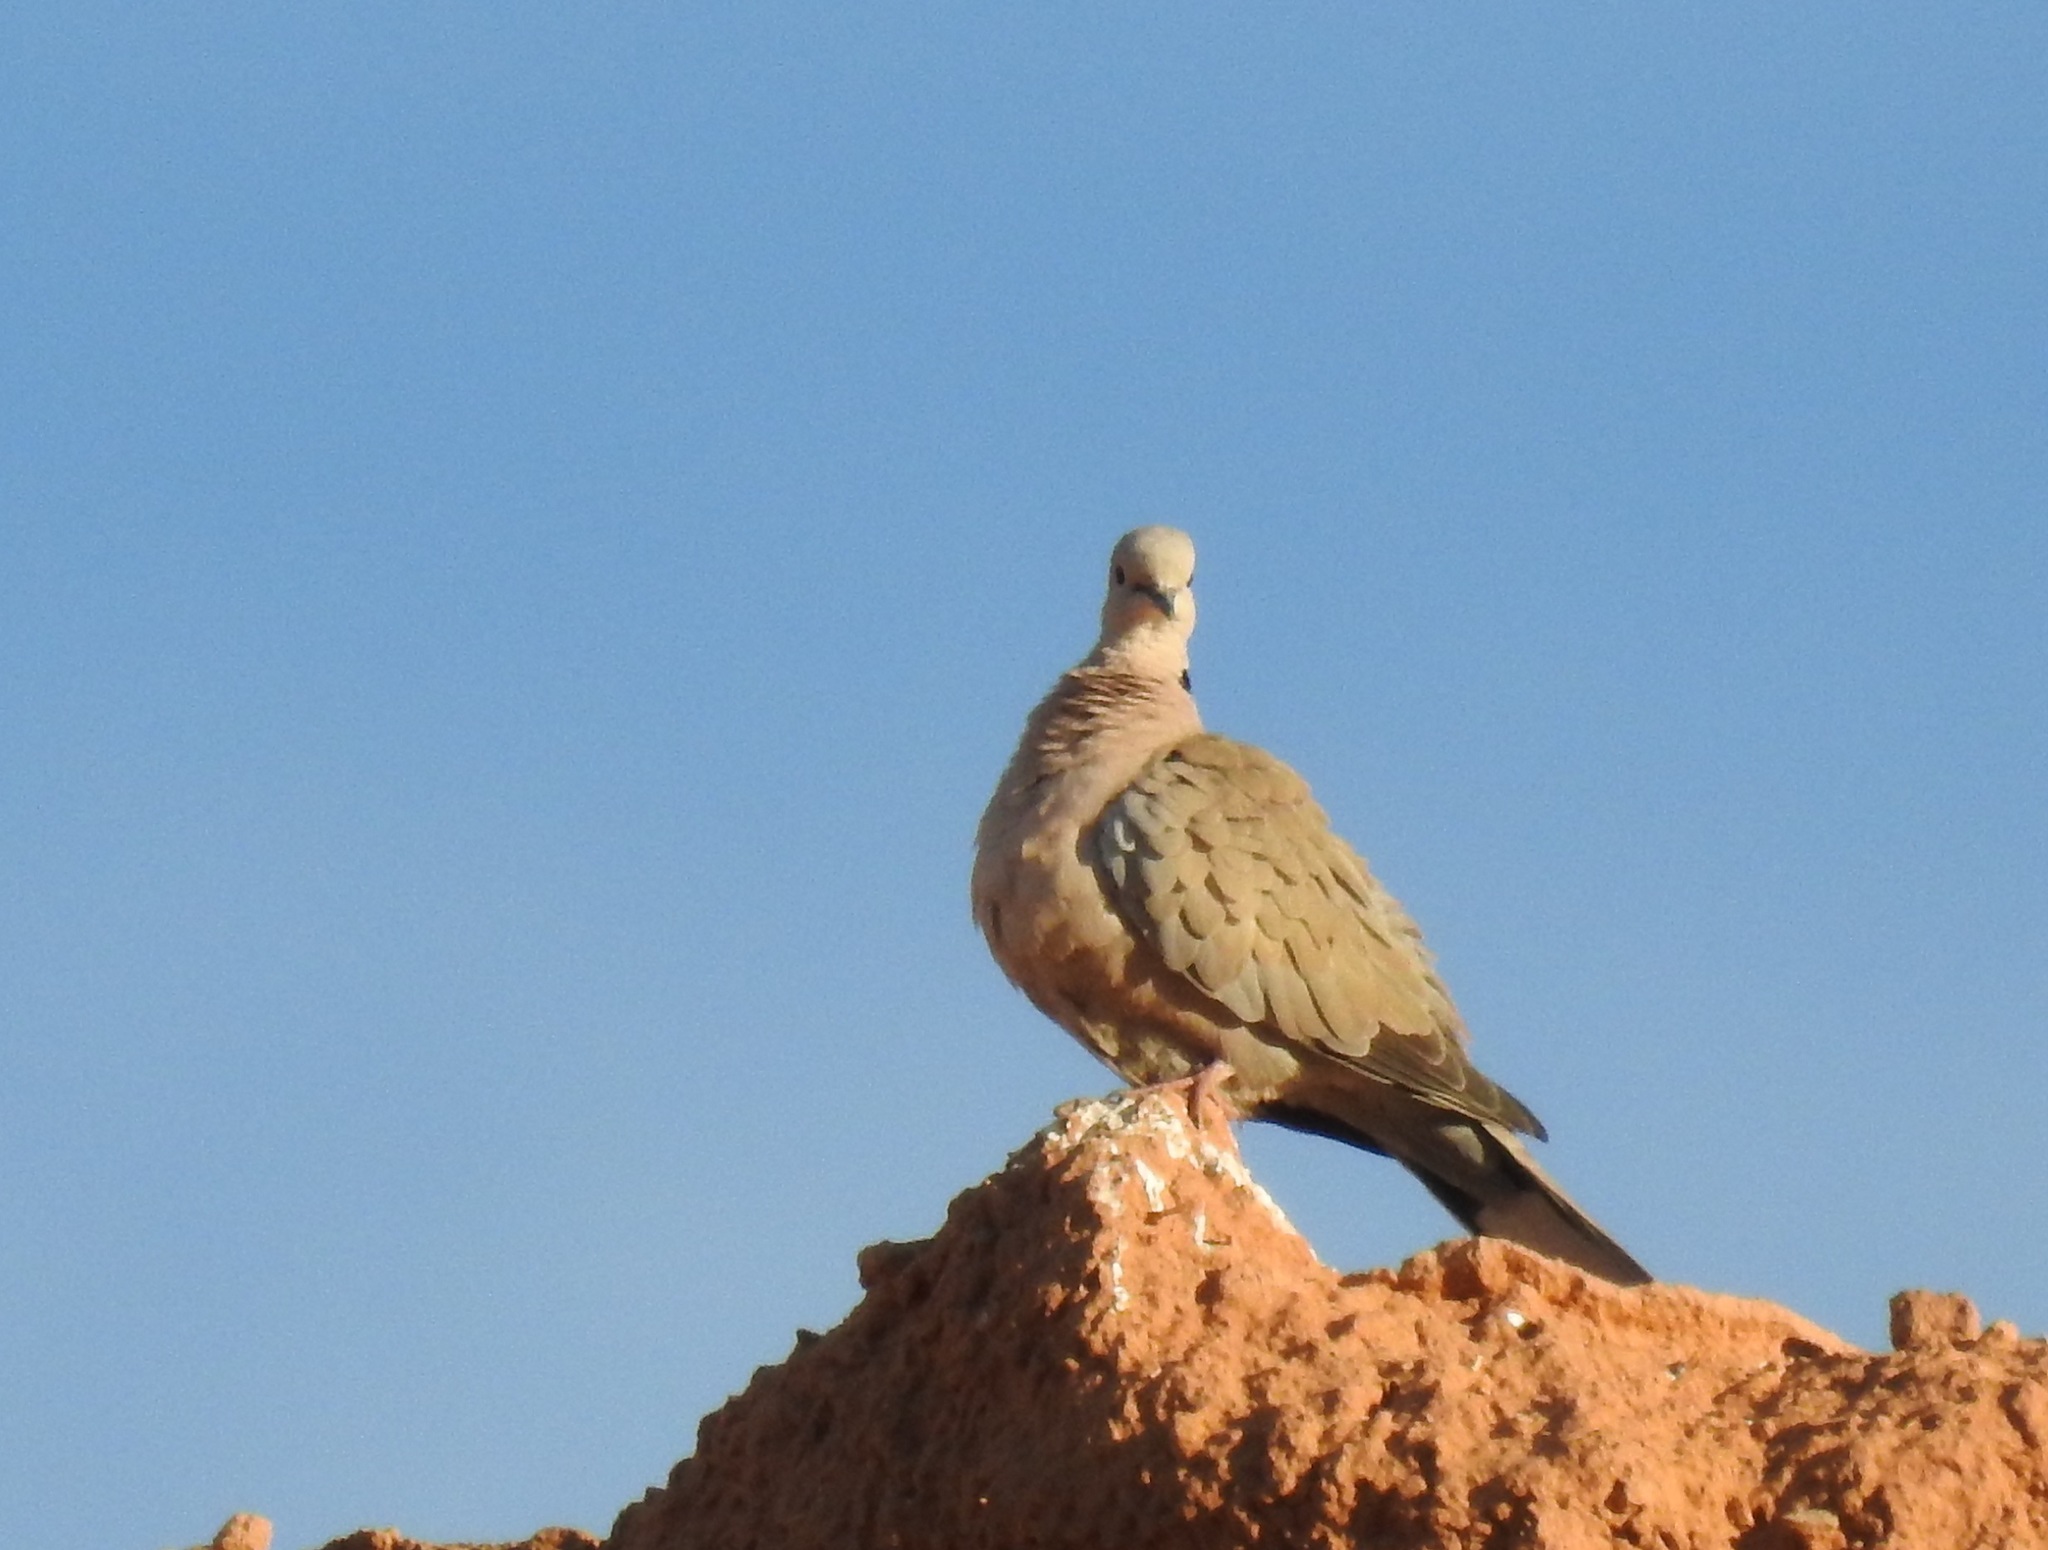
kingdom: Animalia
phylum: Chordata
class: Aves
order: Columbiformes
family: Columbidae
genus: Streptopelia
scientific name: Streptopelia decaocto
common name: Eurasian collared dove
